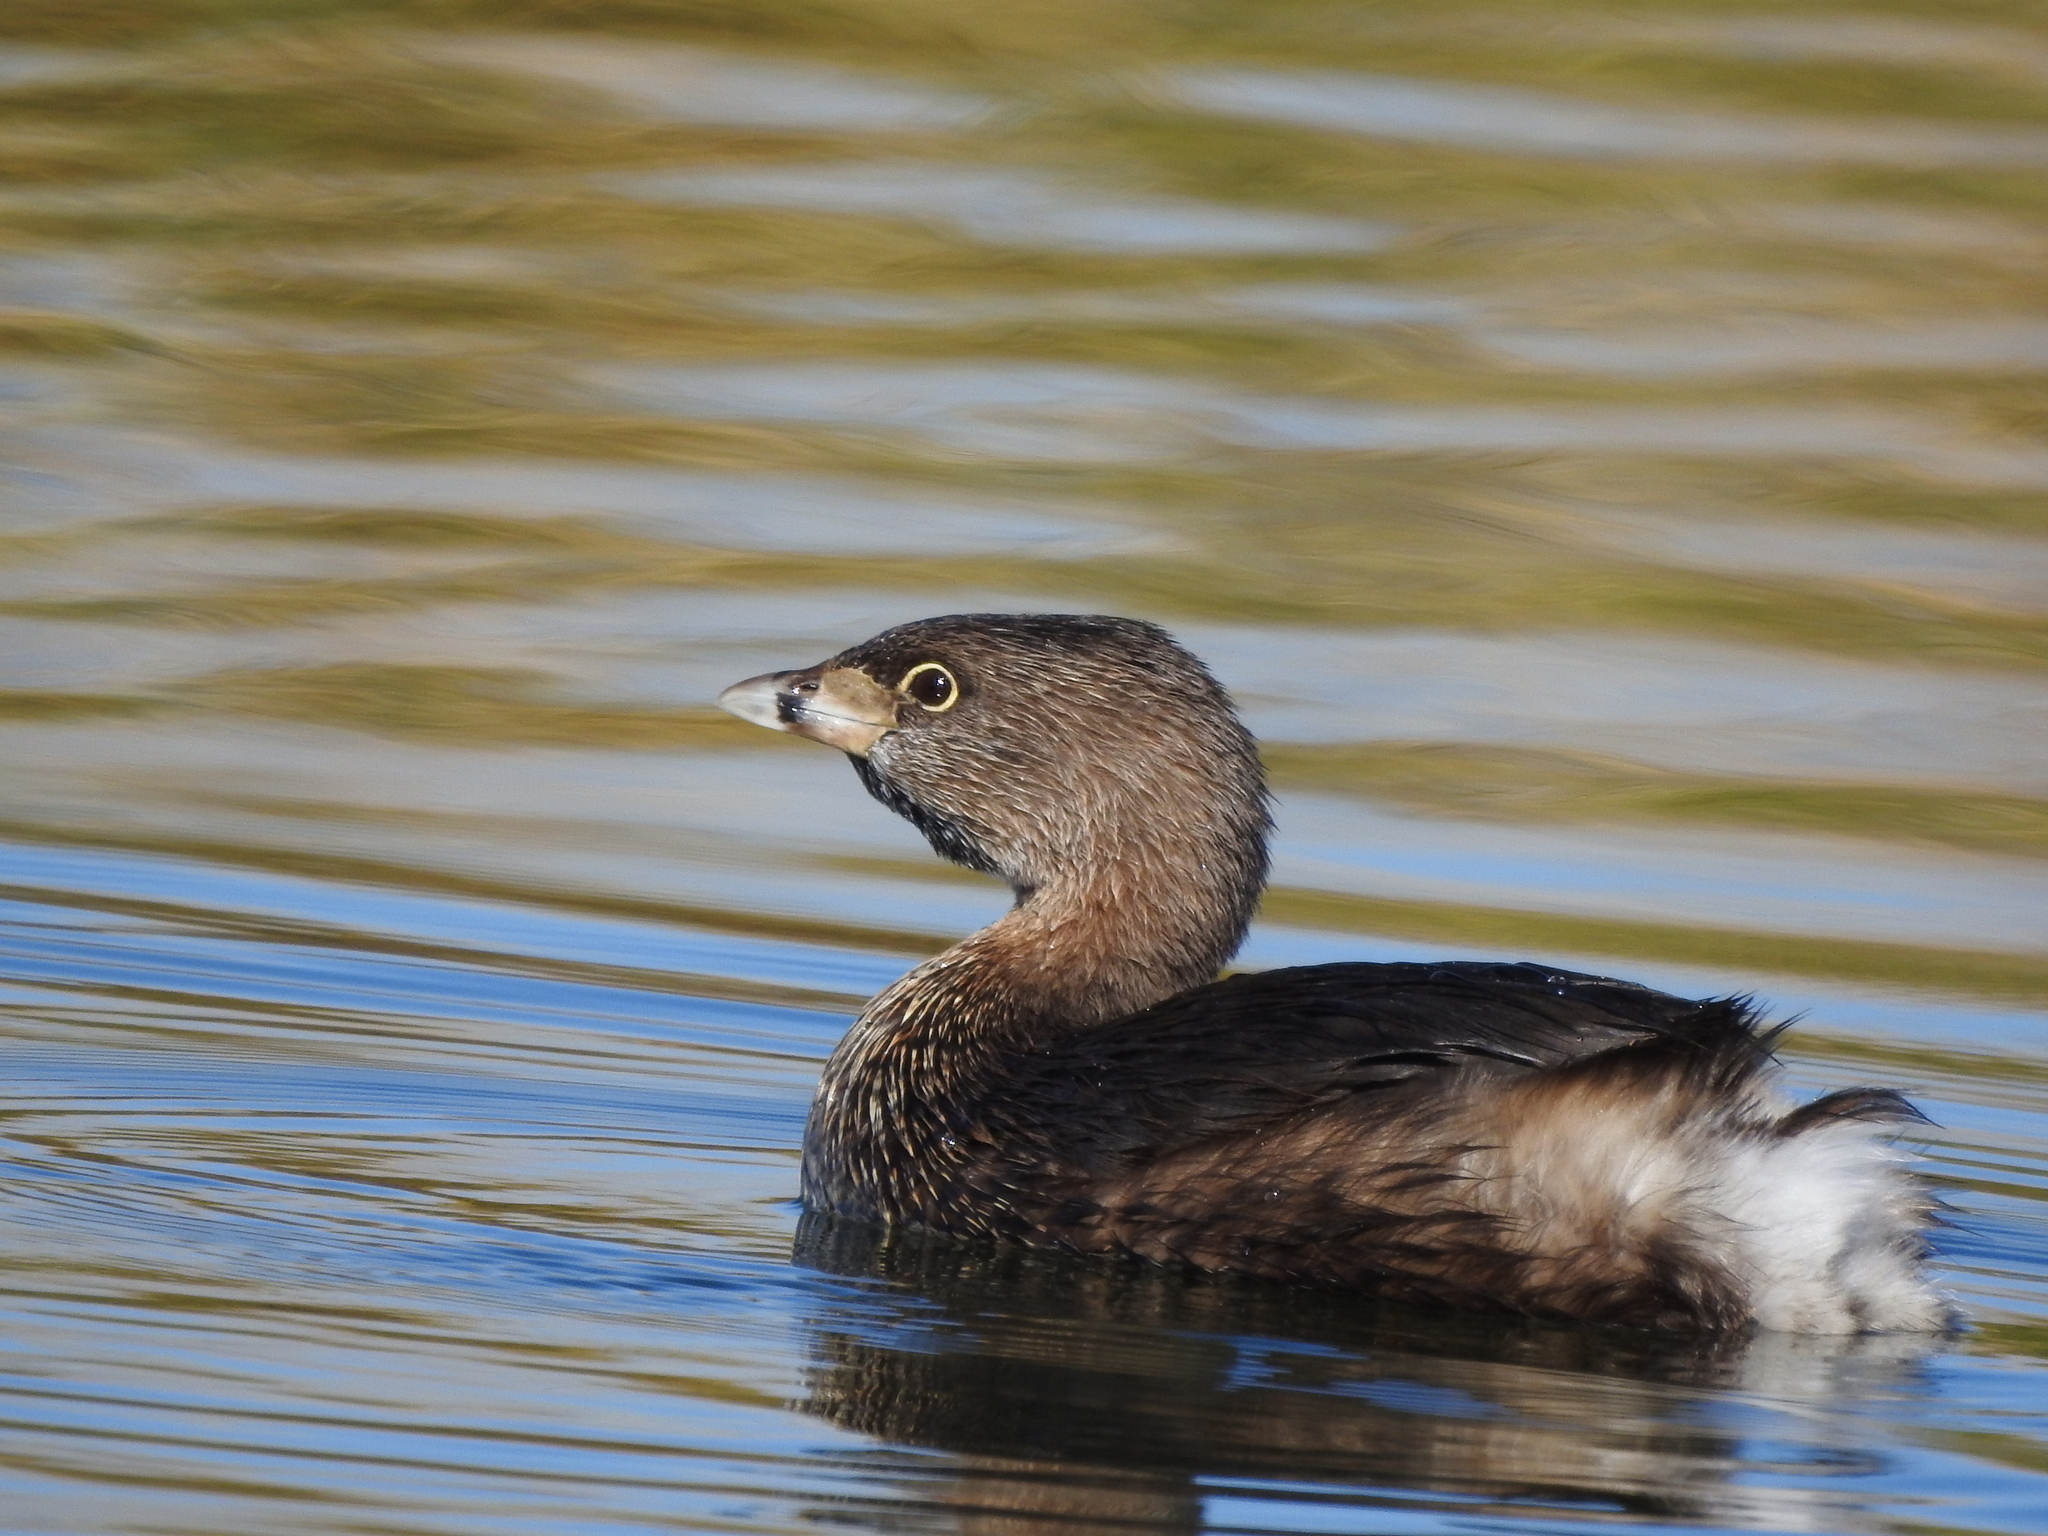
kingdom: Animalia
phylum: Chordata
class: Aves
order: Podicipediformes
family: Podicipedidae
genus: Podilymbus
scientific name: Podilymbus podiceps
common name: Pied-billed grebe
